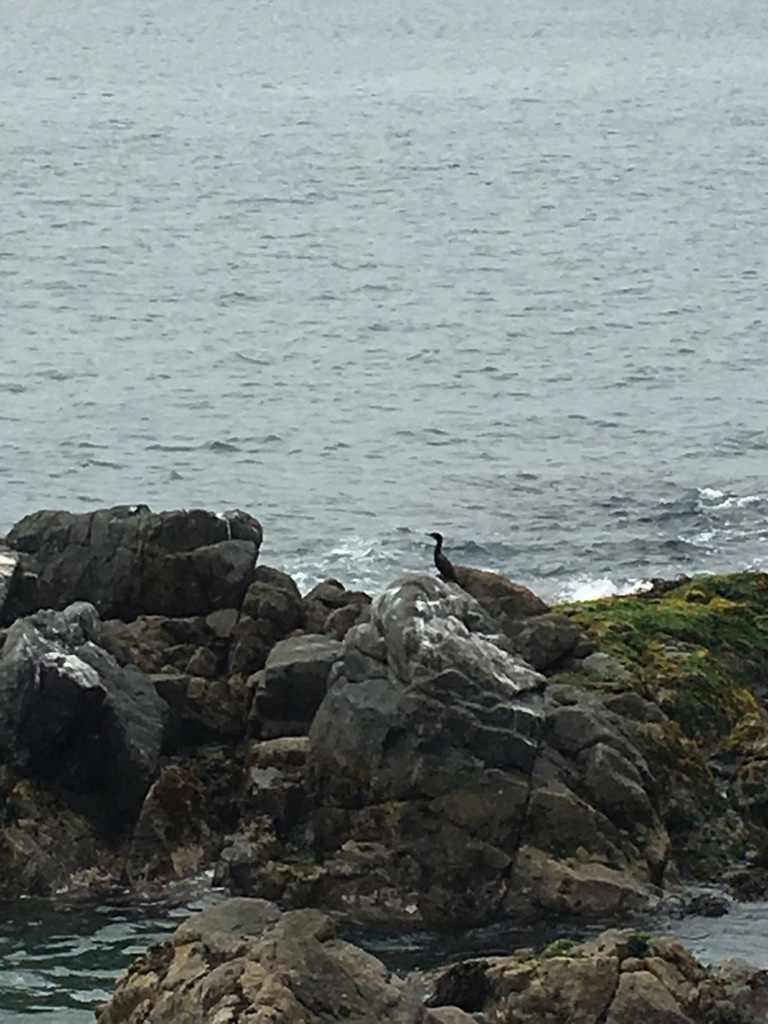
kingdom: Animalia
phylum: Chordata
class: Aves
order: Suliformes
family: Phalacrocoracidae
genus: Phalacrocorax
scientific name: Phalacrocorax brasilianus
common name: Neotropic cormorant
